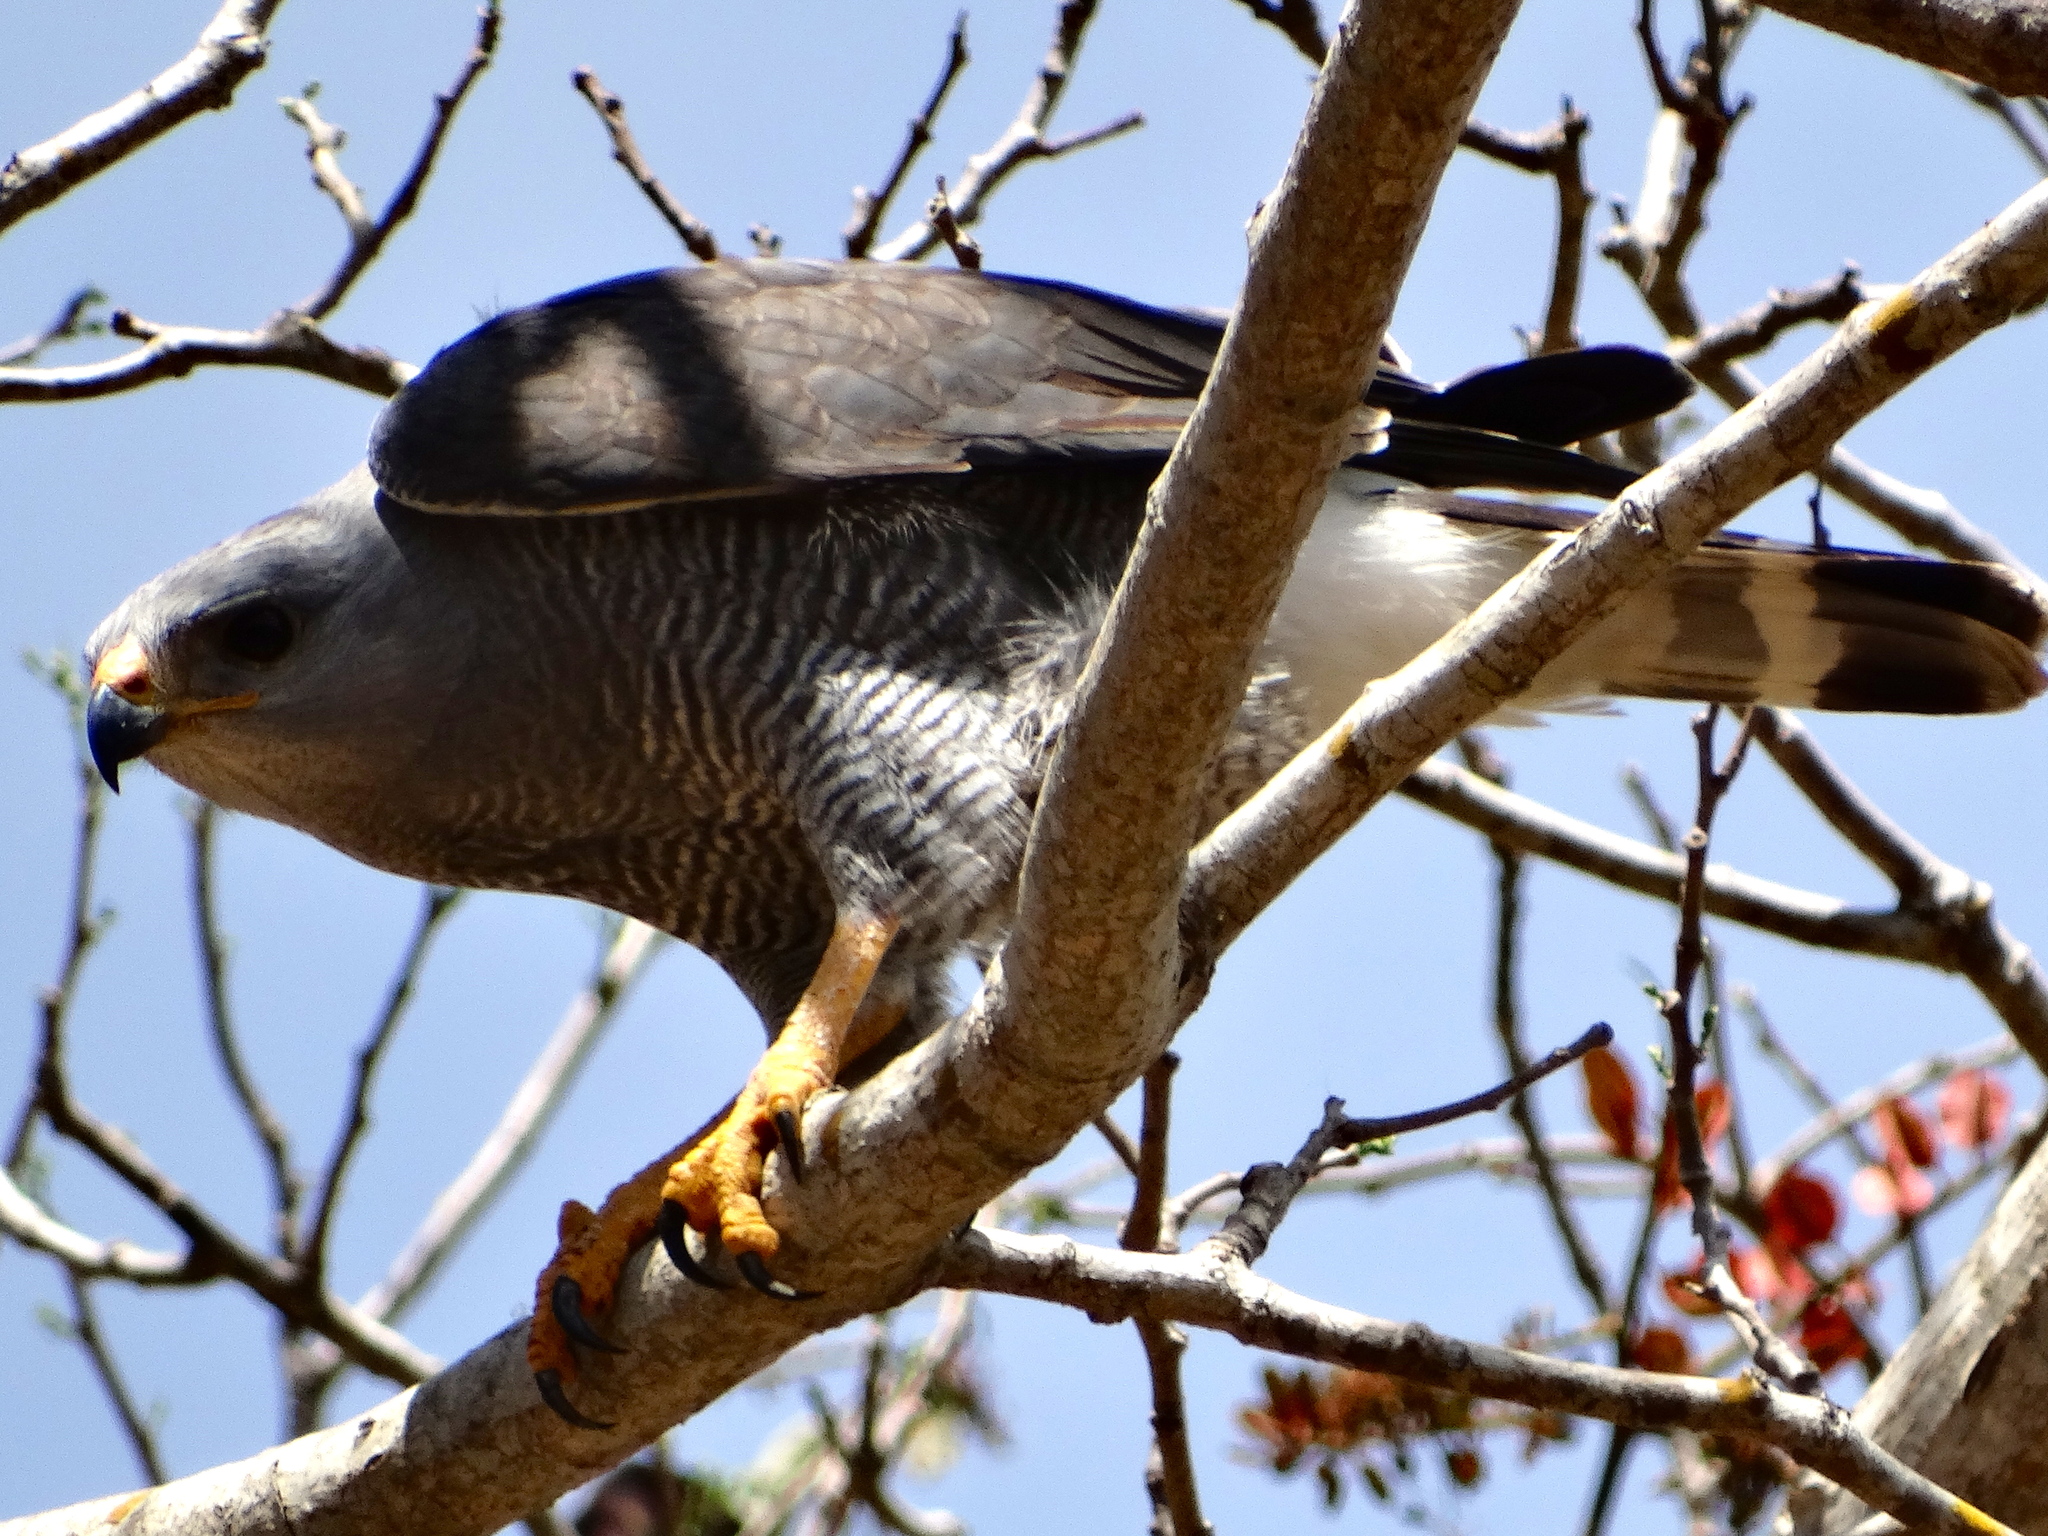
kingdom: Animalia
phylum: Chordata
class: Aves
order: Accipitriformes
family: Accipitridae
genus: Buteo
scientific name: Buteo nitidus
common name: Grey-lined hawk
